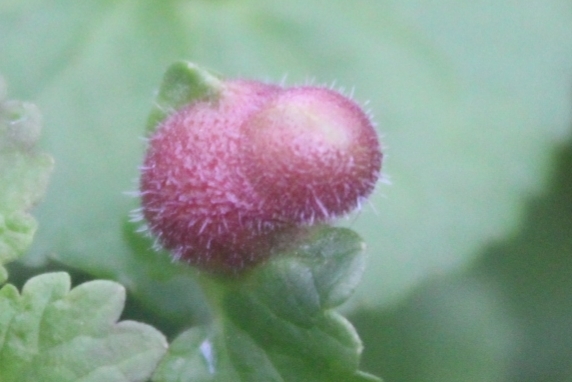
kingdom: Animalia
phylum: Arthropoda
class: Insecta
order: Hymenoptera
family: Cynipidae
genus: Liposthenes
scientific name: Liposthenes glechomae
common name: Gall wasp
